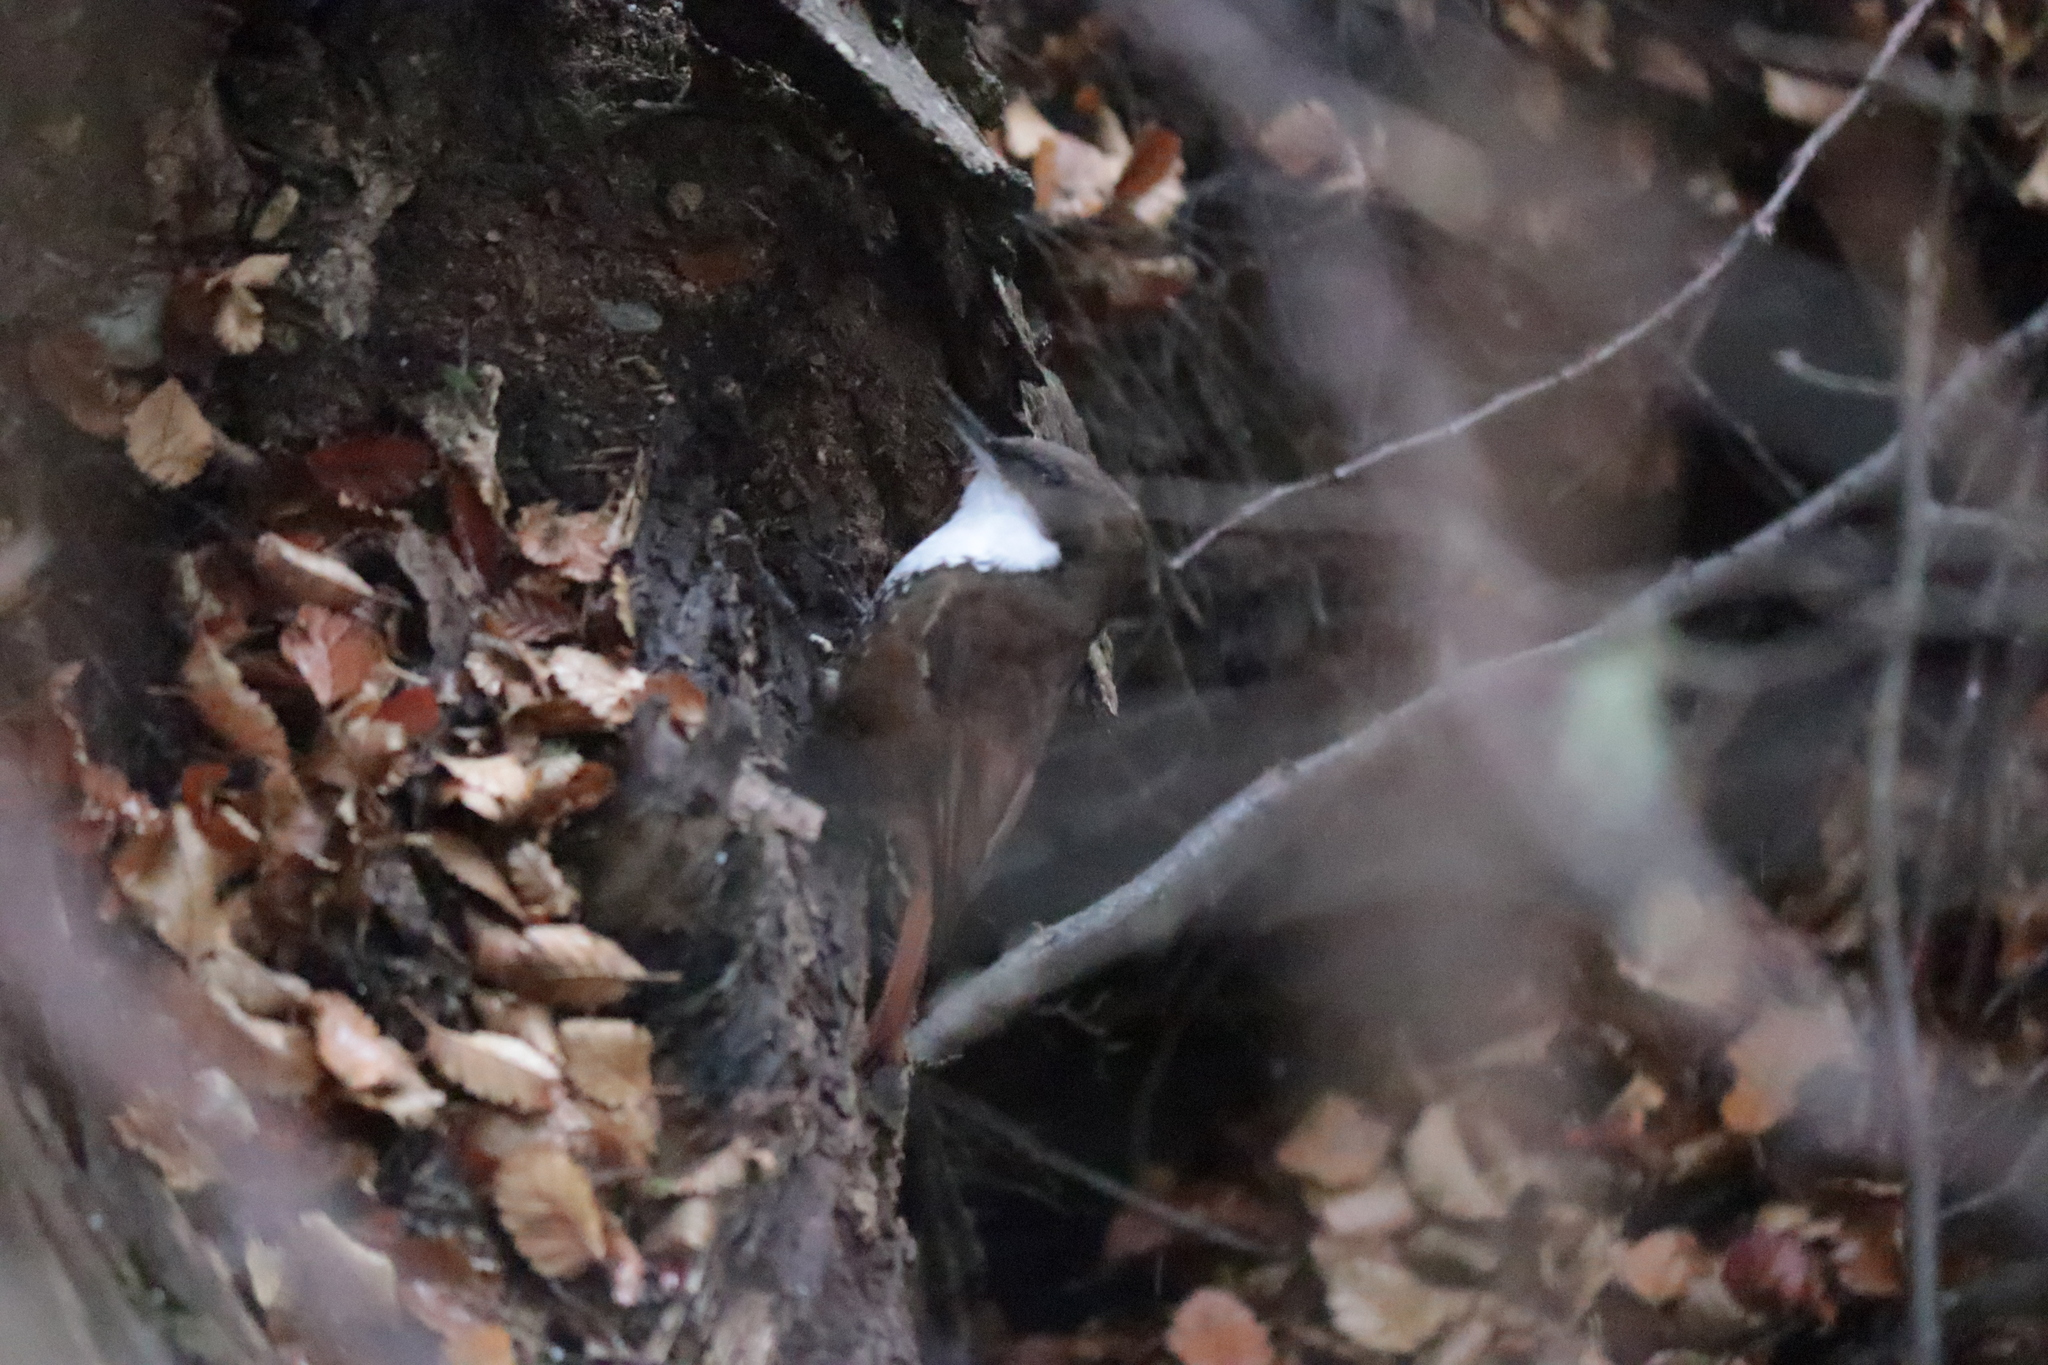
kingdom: Animalia
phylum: Chordata
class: Aves
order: Passeriformes
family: Furnariidae
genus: Pygarrhichas
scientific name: Pygarrhichas albogularis
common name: White-throated treerunner
